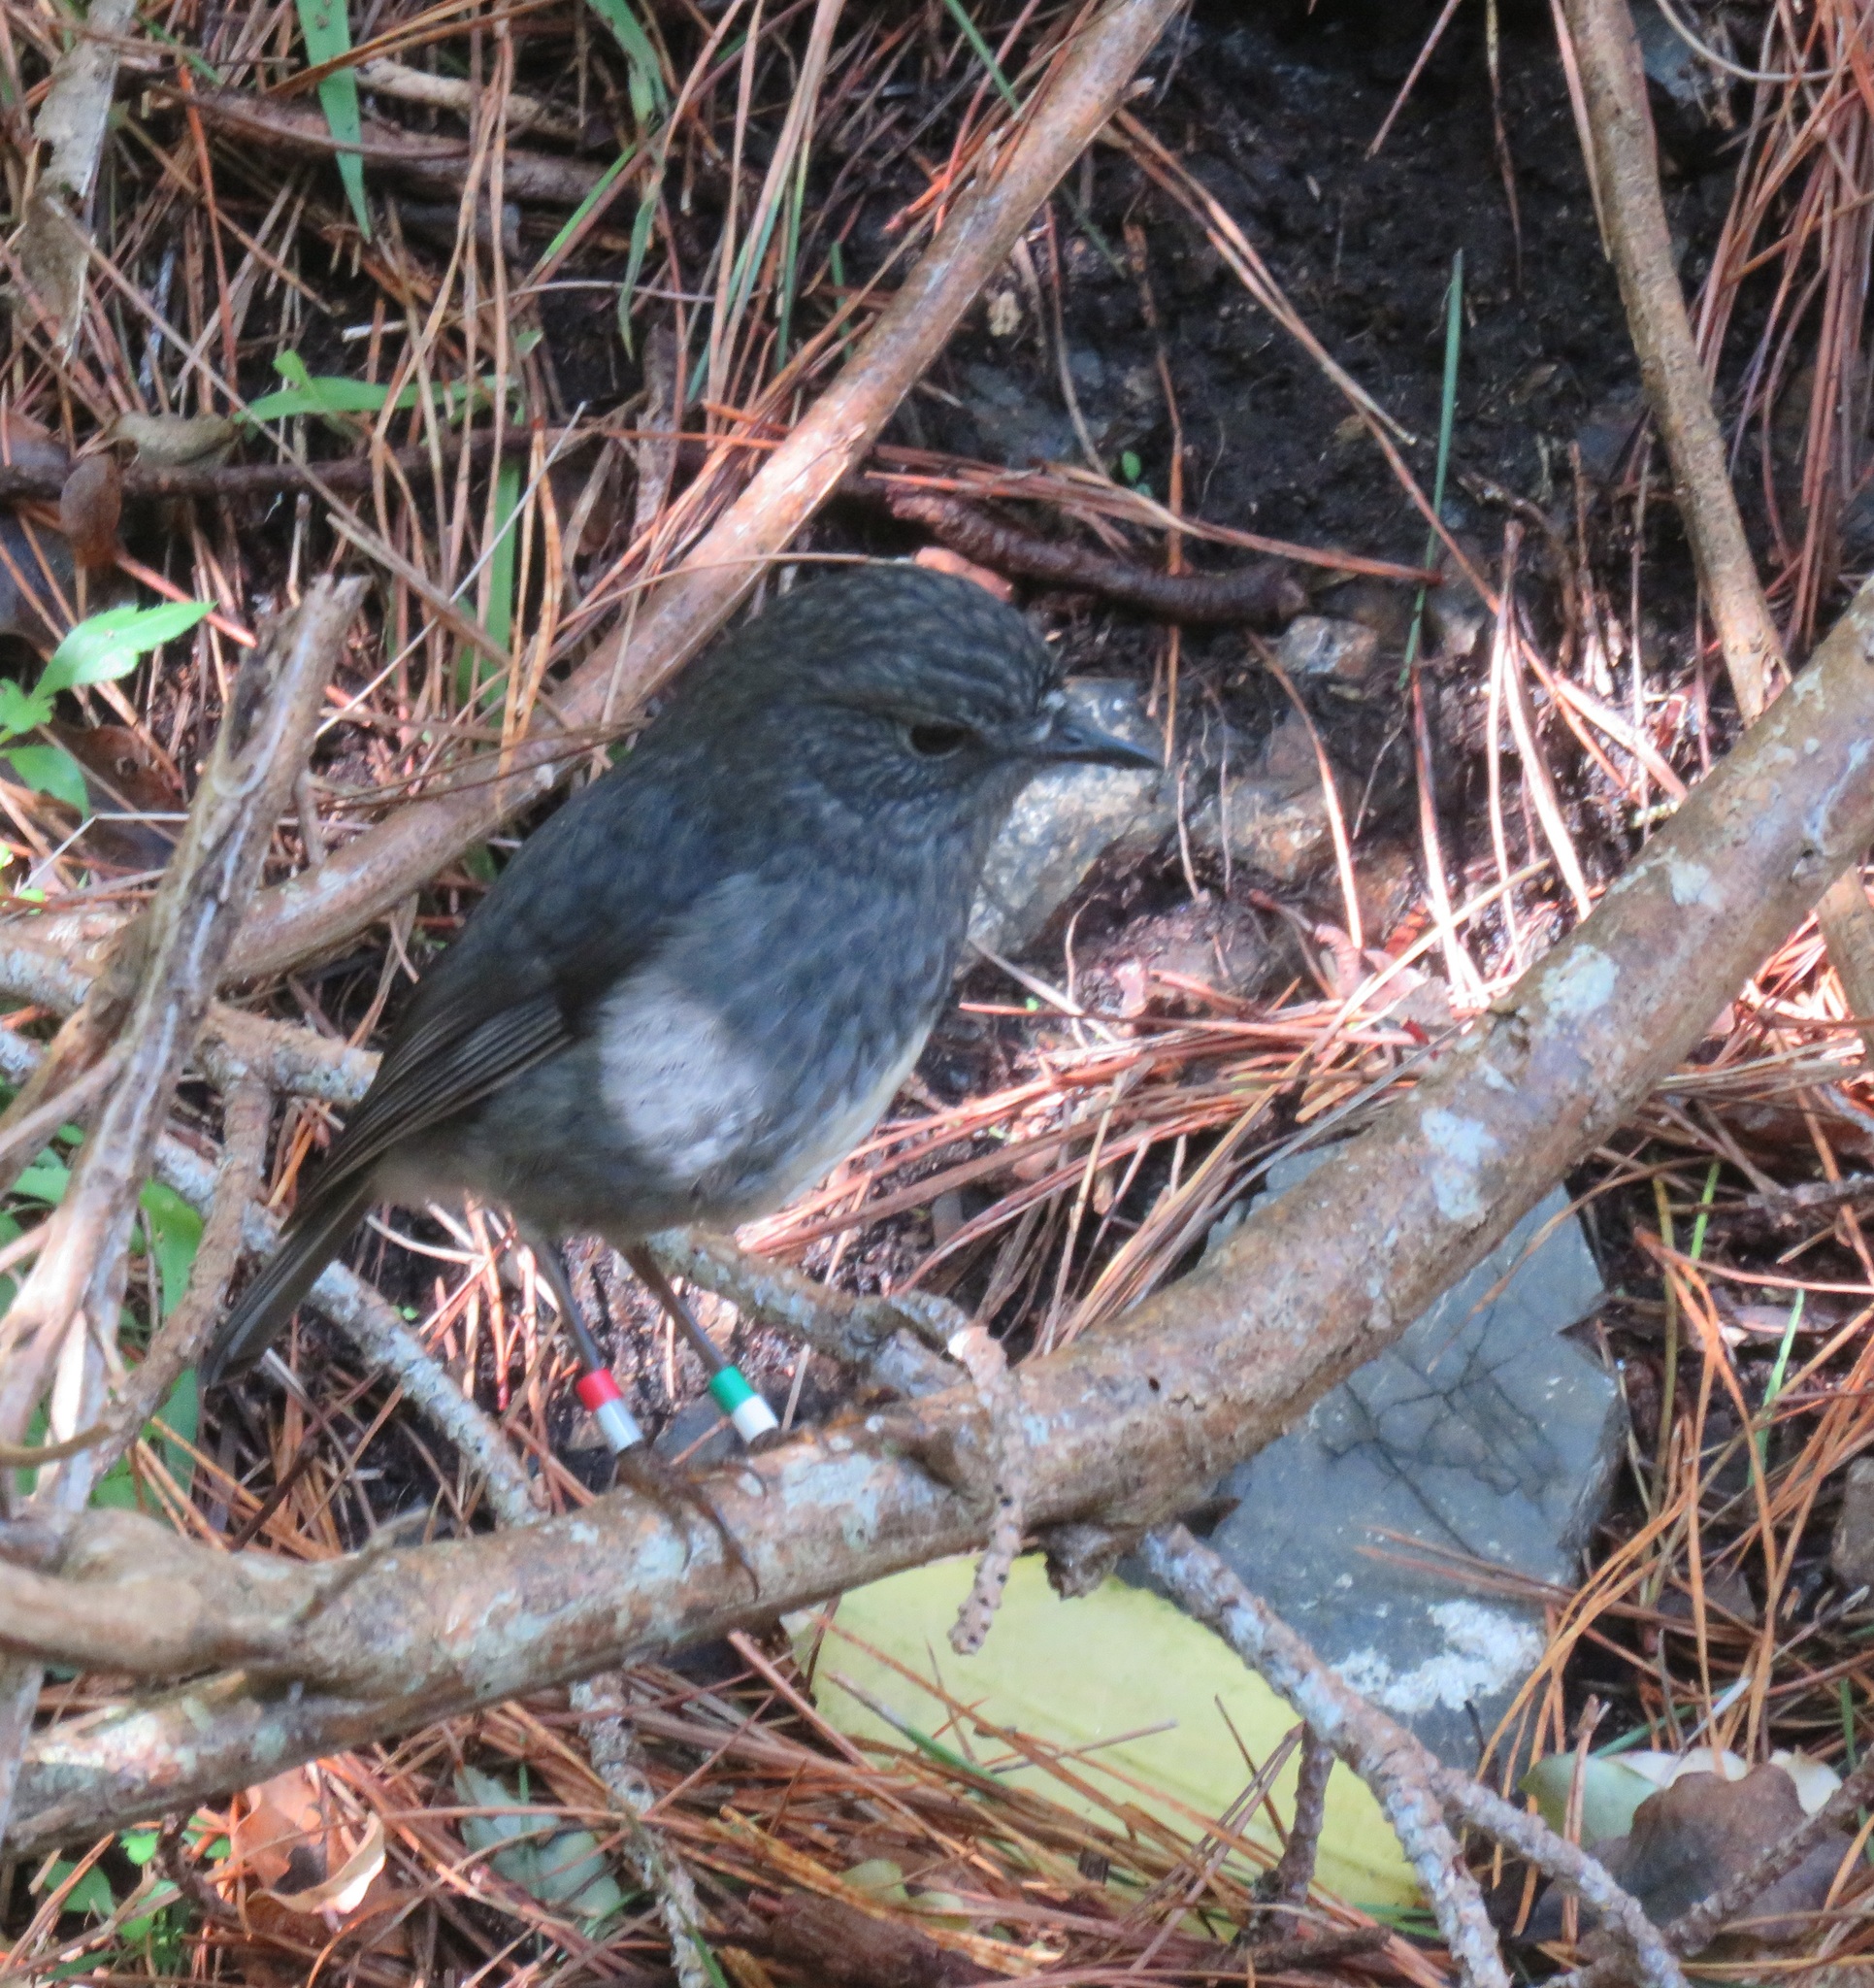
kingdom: Animalia
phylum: Chordata
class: Aves
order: Passeriformes
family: Petroicidae
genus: Petroica
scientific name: Petroica australis
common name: New zealand robin
